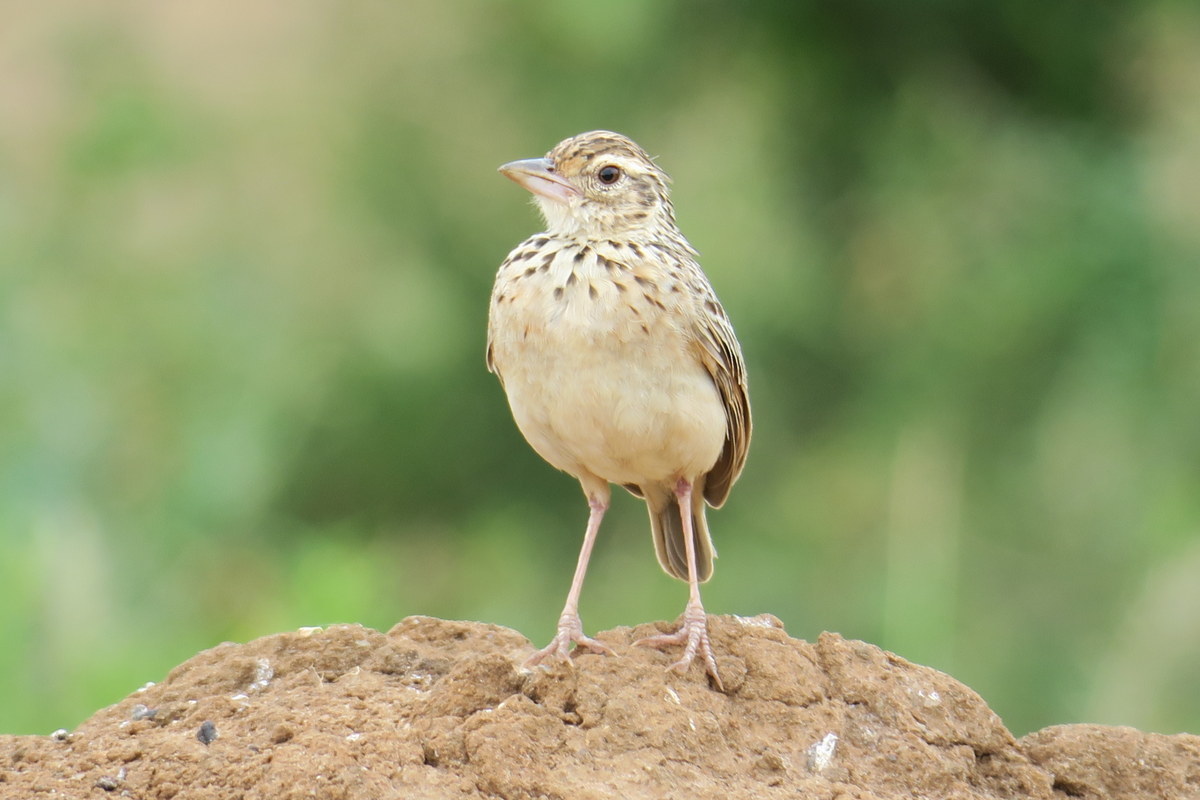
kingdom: Animalia
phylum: Chordata
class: Aves
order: Passeriformes
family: Alaudidae
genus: Mirafra
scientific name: Mirafra affinis
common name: Jerdon's bushlark
